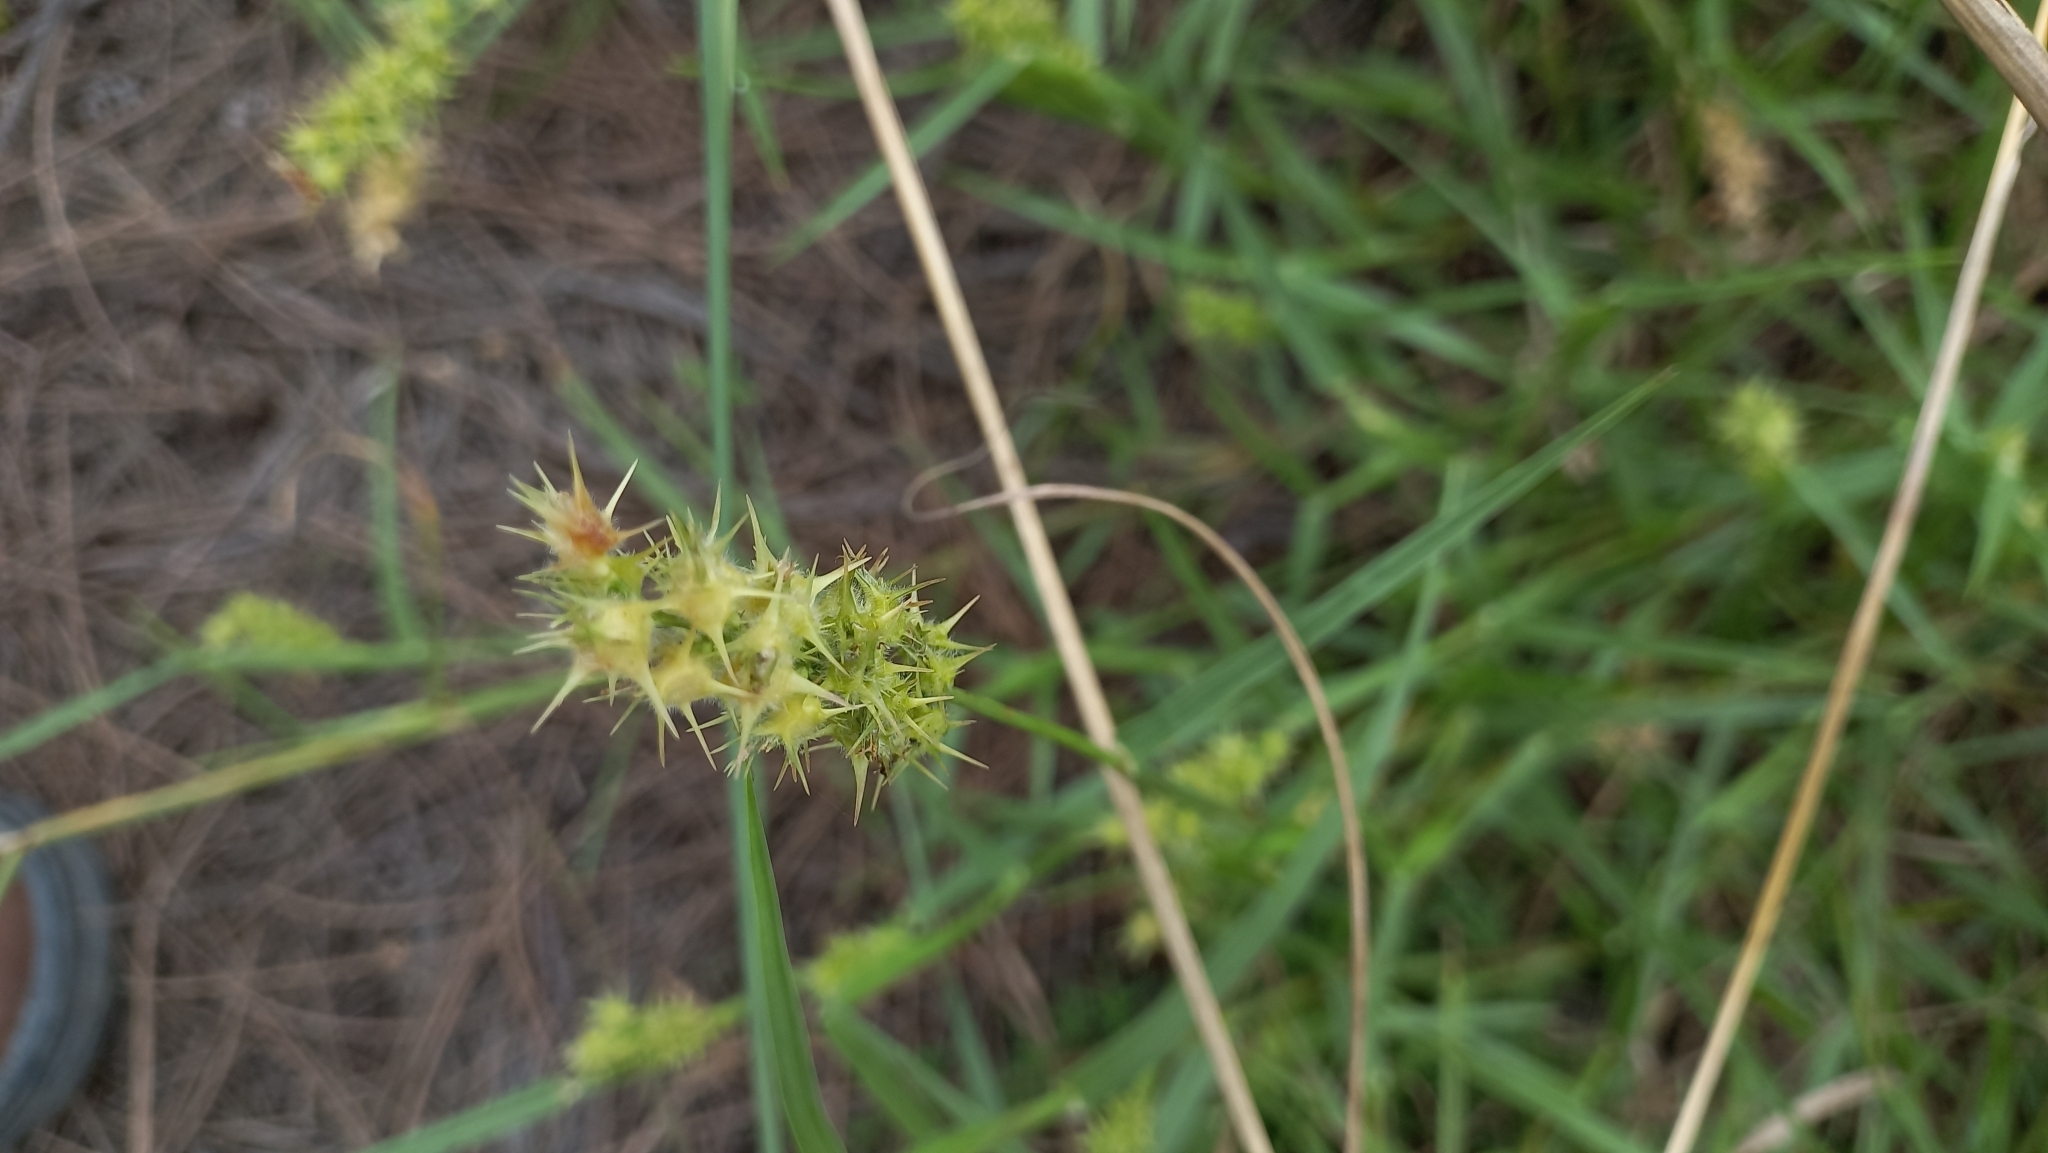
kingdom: Plantae
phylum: Tracheophyta
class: Liliopsida
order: Poales
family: Poaceae
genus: Cenchrus
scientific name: Cenchrus tribuloides
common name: Dune sandbur
